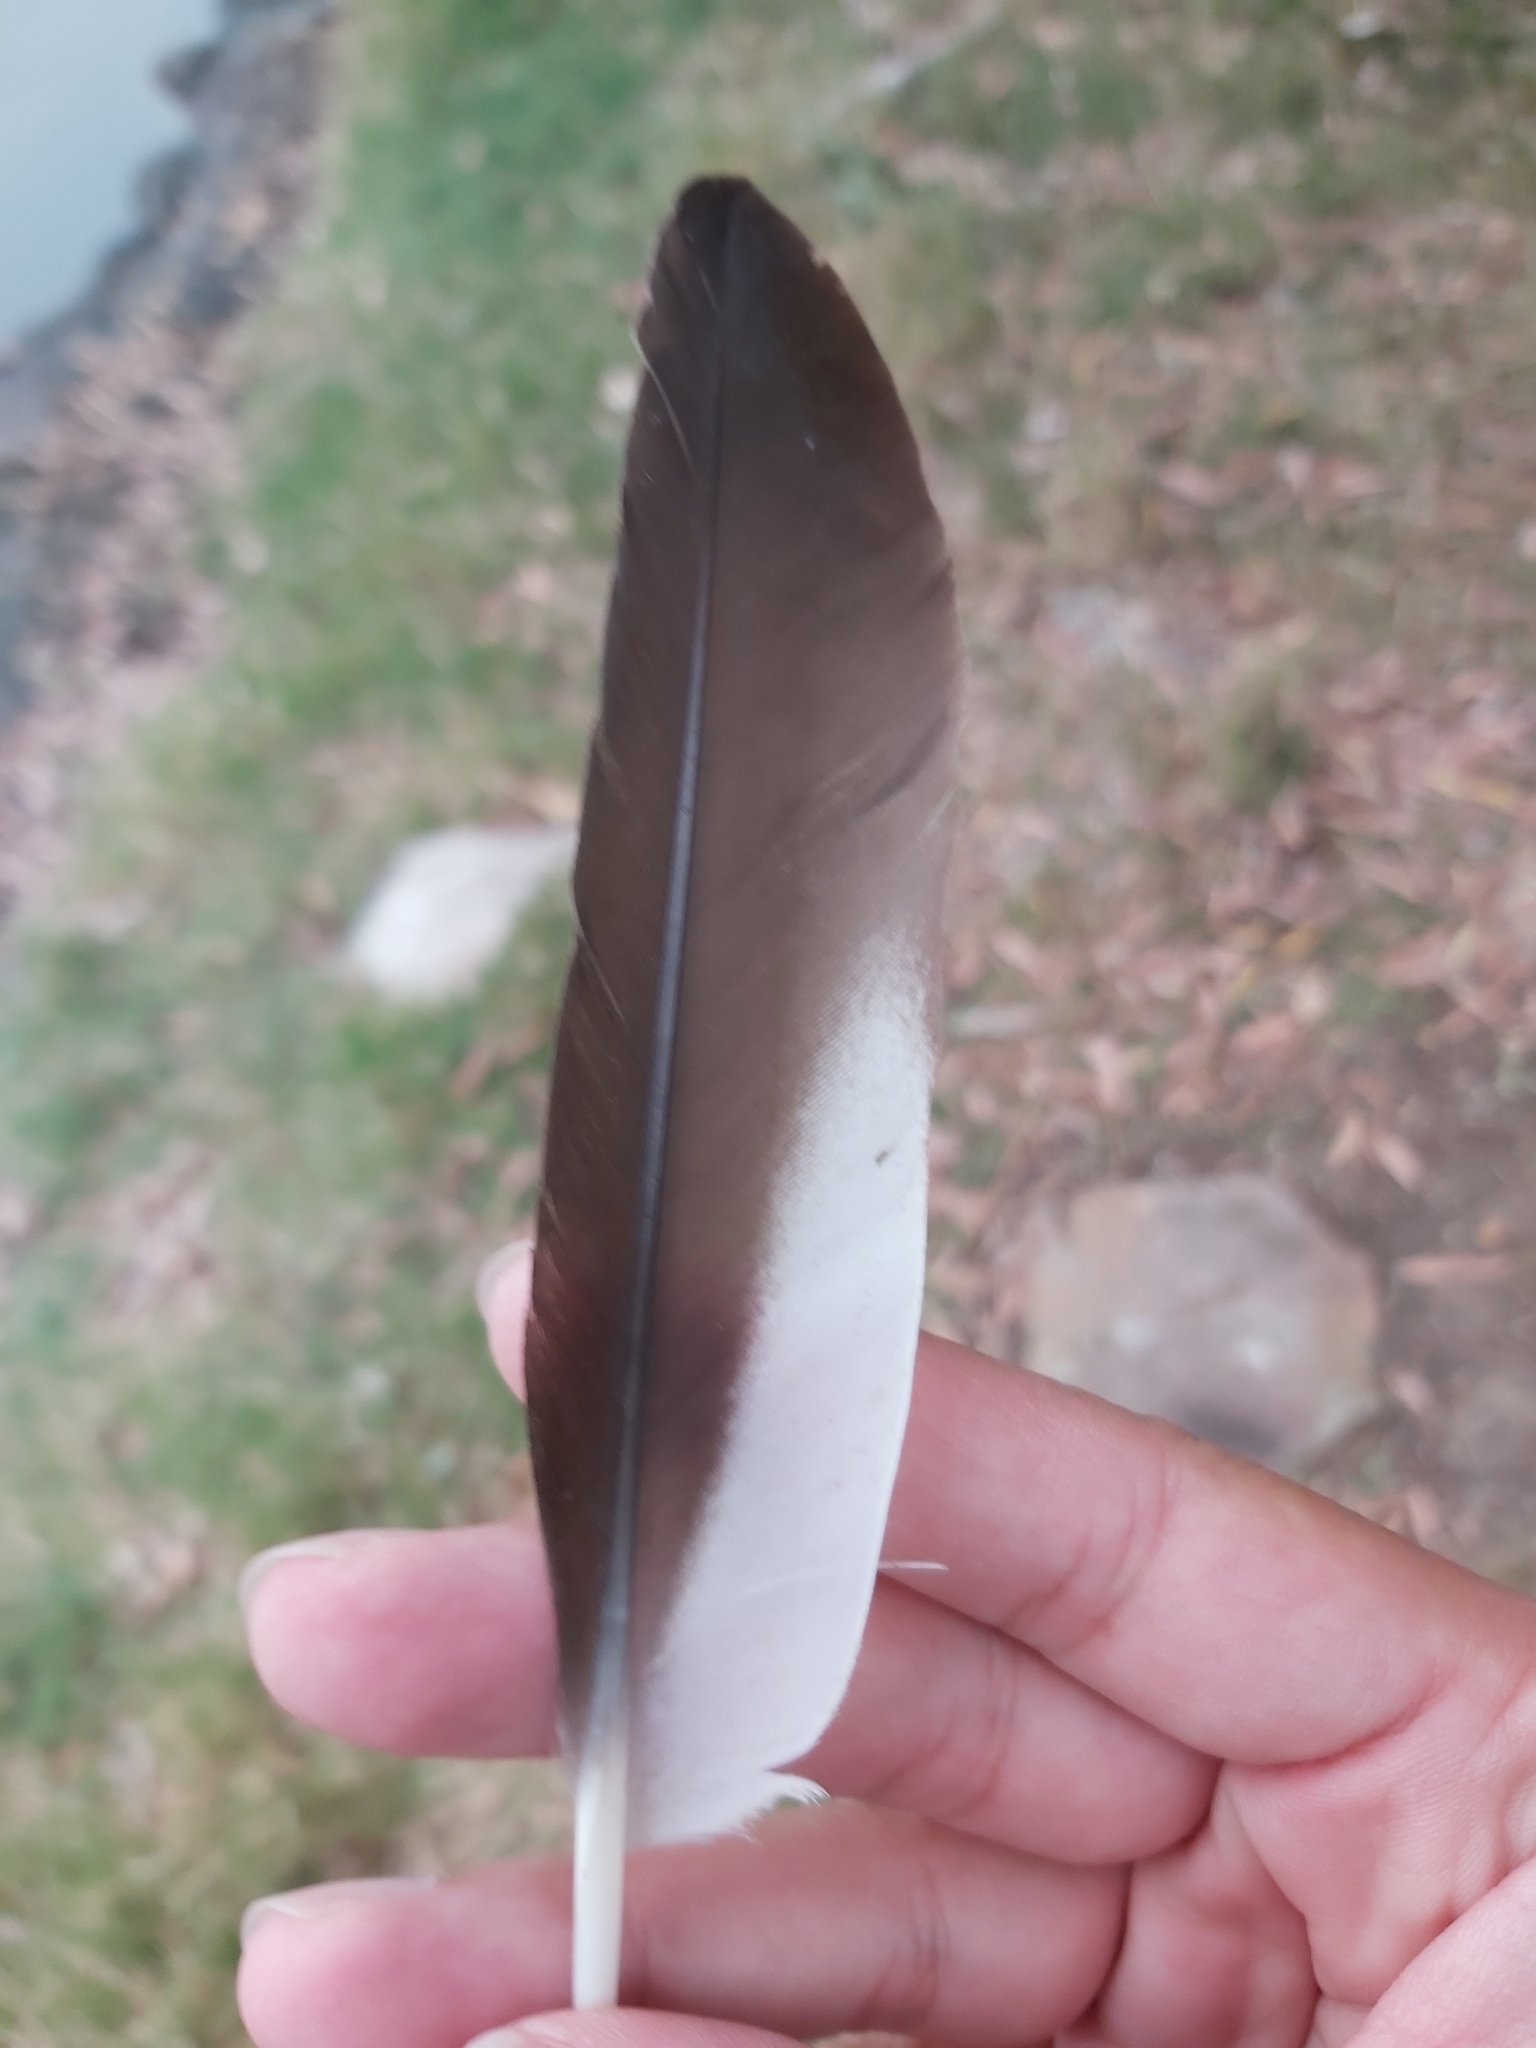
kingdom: Animalia
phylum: Chordata
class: Aves
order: Anseriformes
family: Anatidae
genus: Chenonetta
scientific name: Chenonetta jubata
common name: Maned duck
